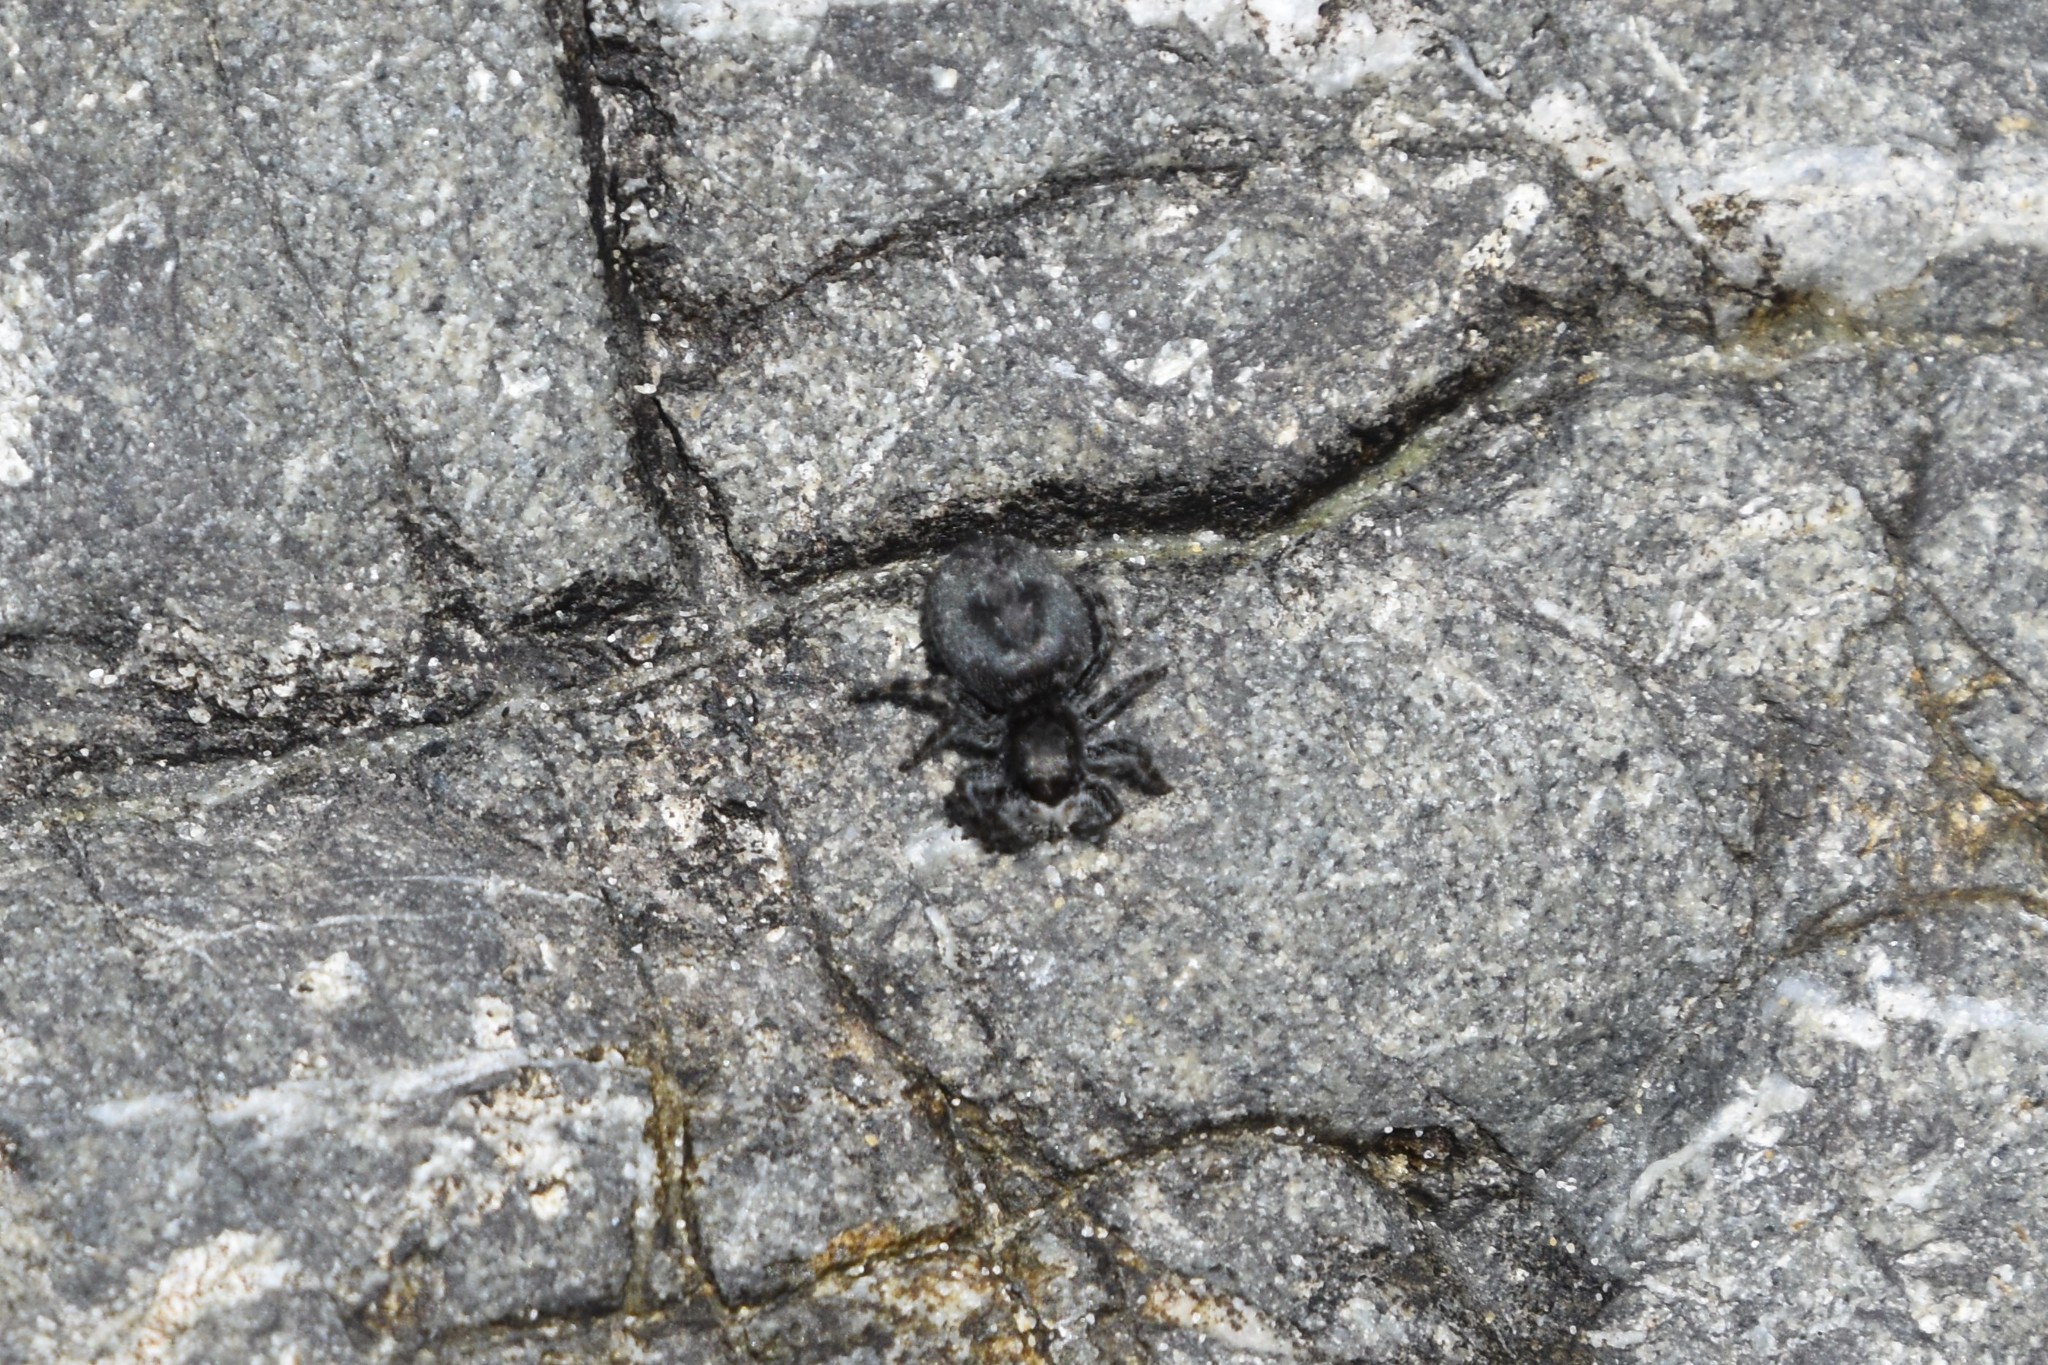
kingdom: Animalia
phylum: Arthropoda
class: Arachnida
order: Araneae
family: Salticidae
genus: Terralonus
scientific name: Terralonus californicus
